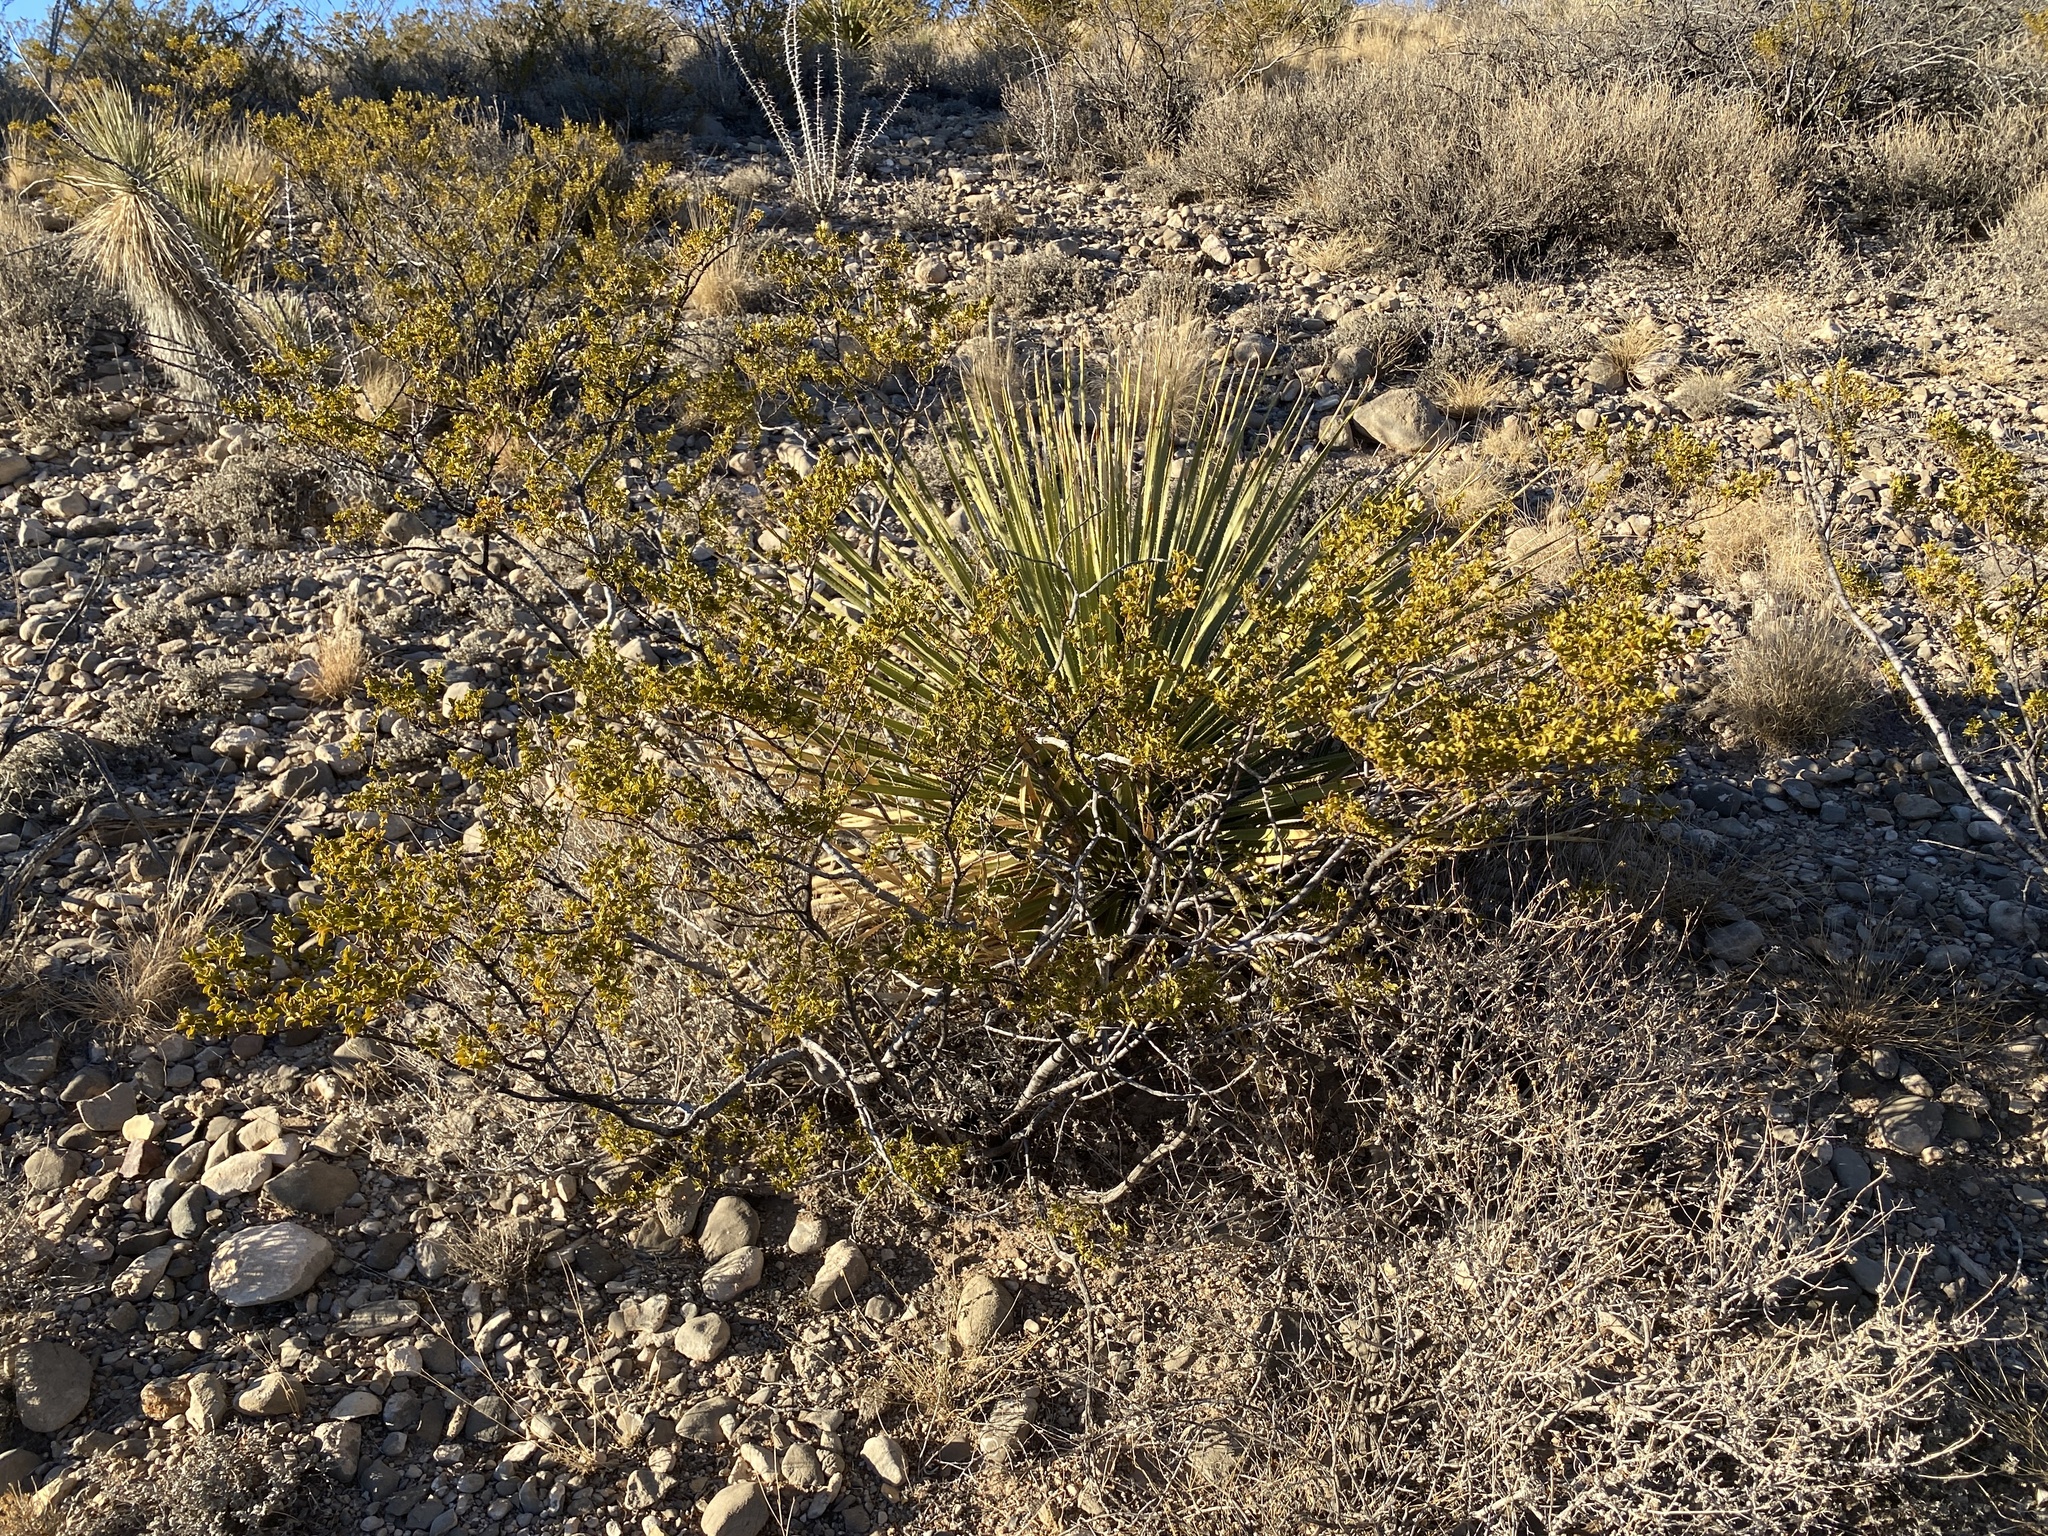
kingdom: Plantae
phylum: Tracheophyta
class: Magnoliopsida
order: Zygophyllales
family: Zygophyllaceae
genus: Larrea
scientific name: Larrea tridentata
